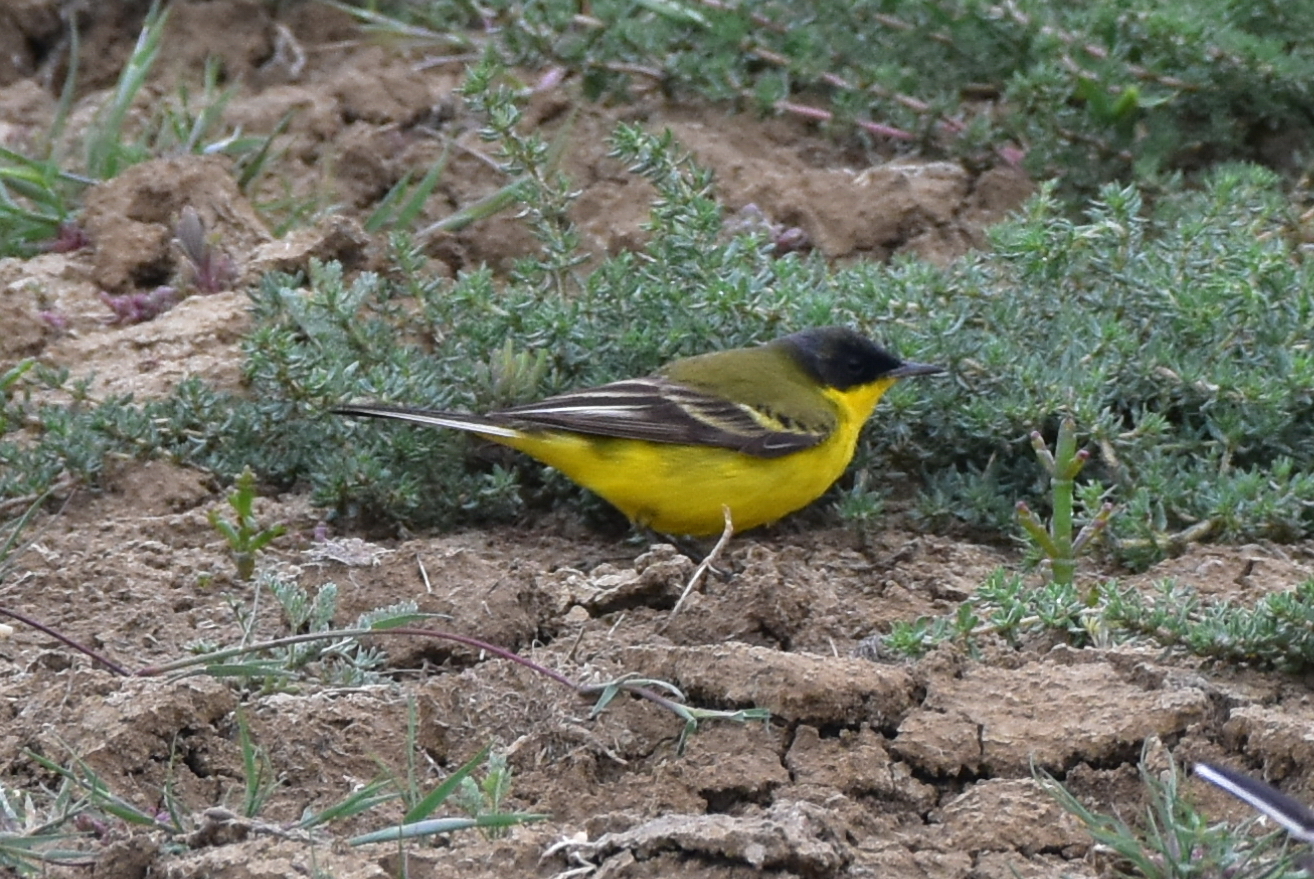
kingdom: Animalia
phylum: Chordata
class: Aves
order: Passeriformes
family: Motacillidae
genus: Motacilla
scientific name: Motacilla flava
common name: Western yellow wagtail
